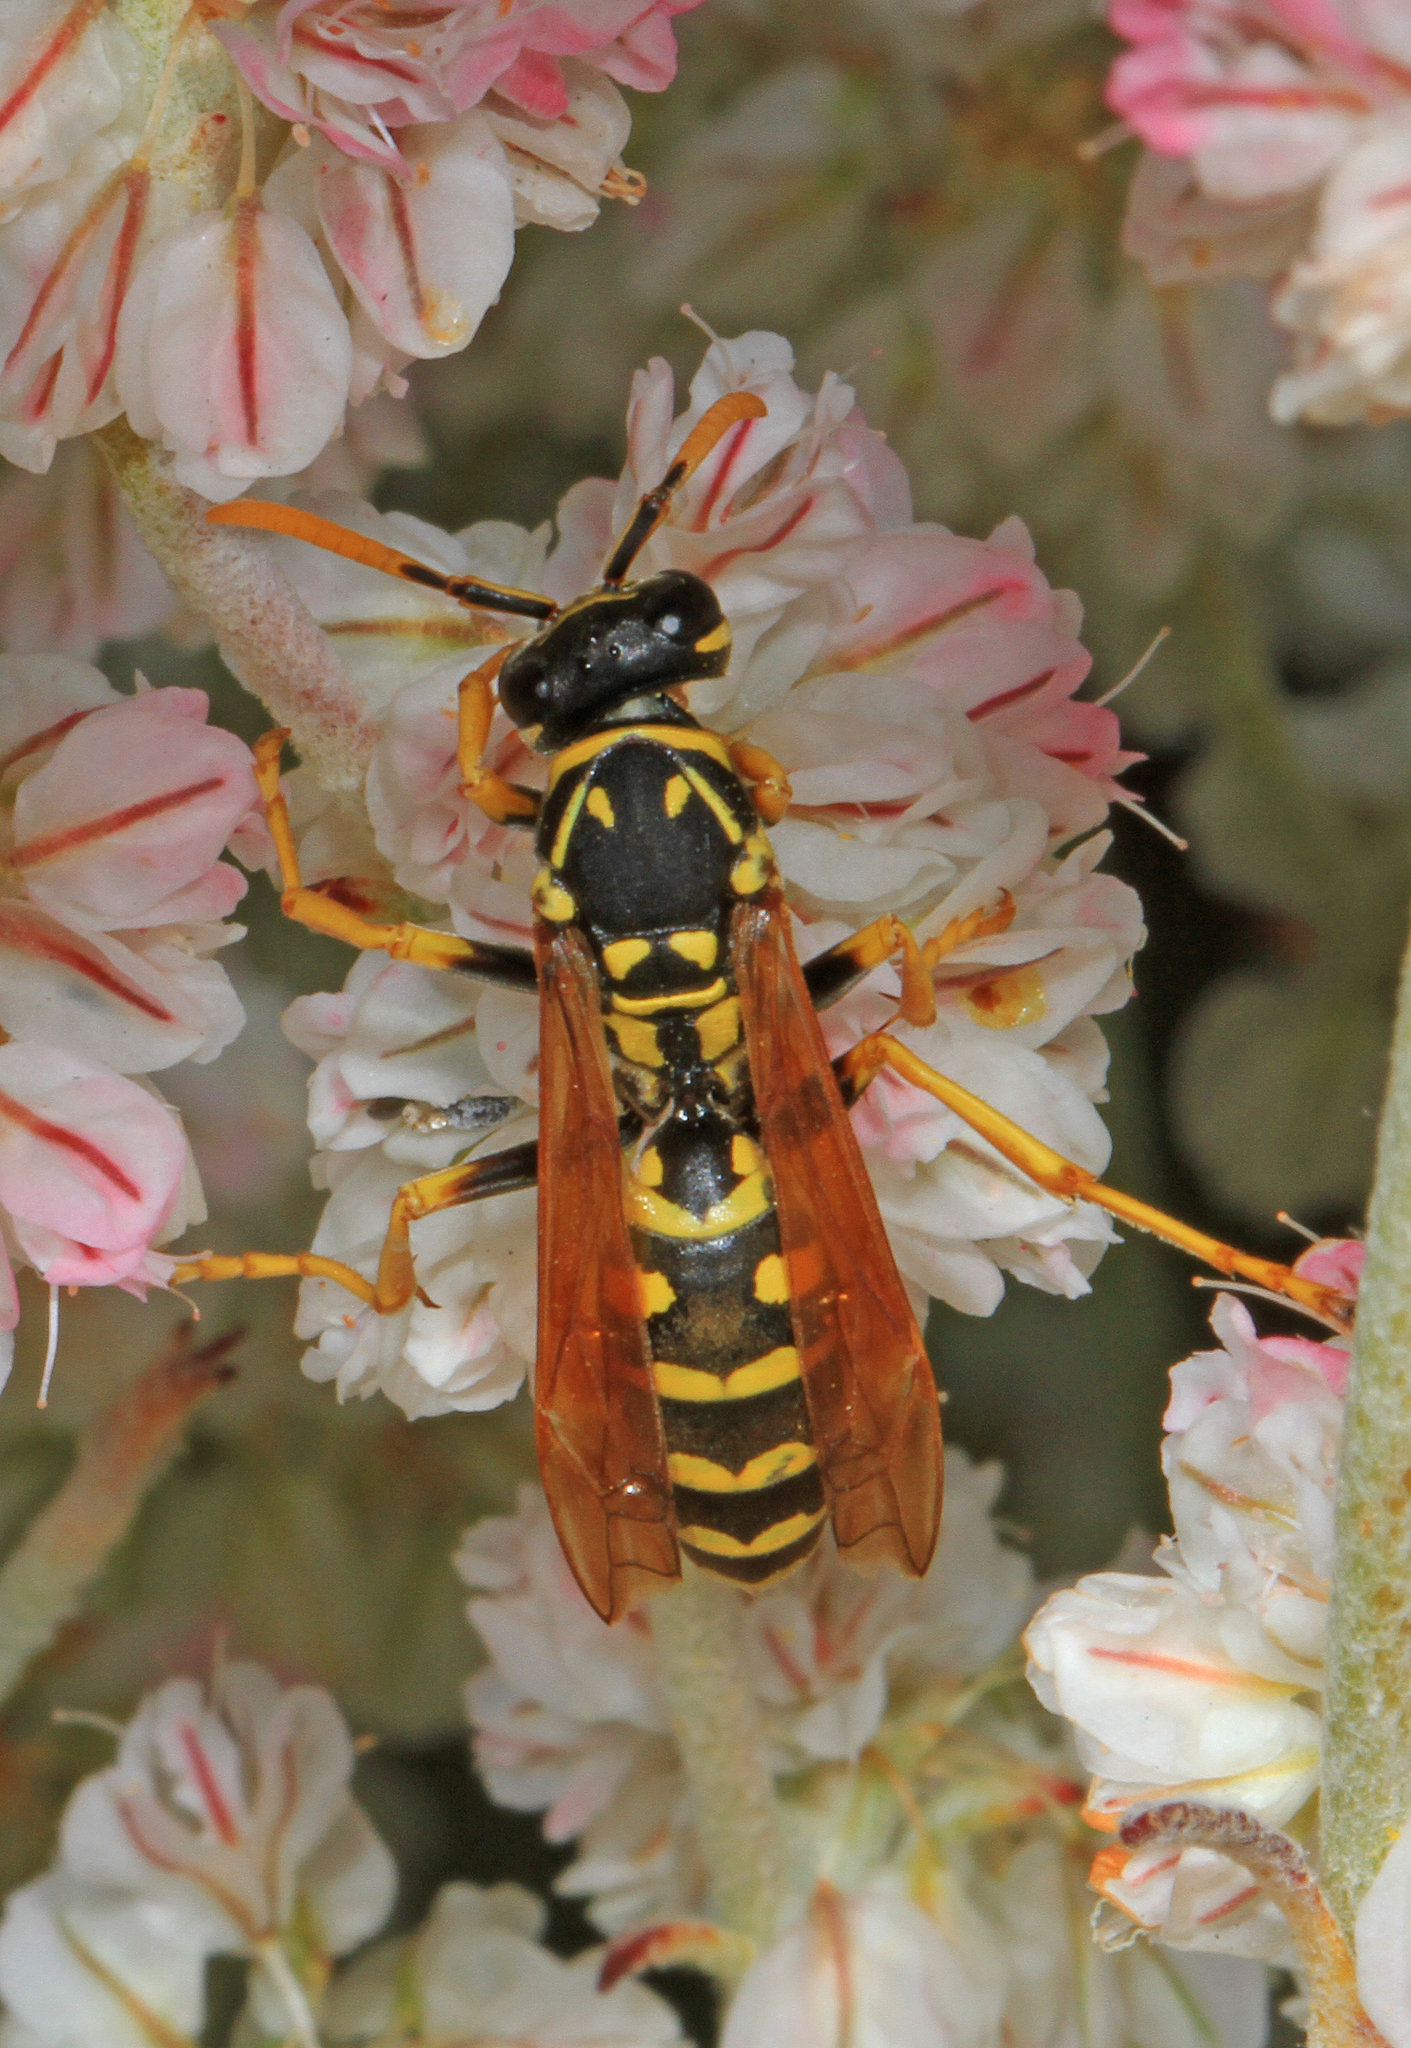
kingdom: Animalia
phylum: Arthropoda
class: Insecta
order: Hymenoptera
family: Eumenidae
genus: Polistes
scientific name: Polistes dominula
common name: Paper wasp
